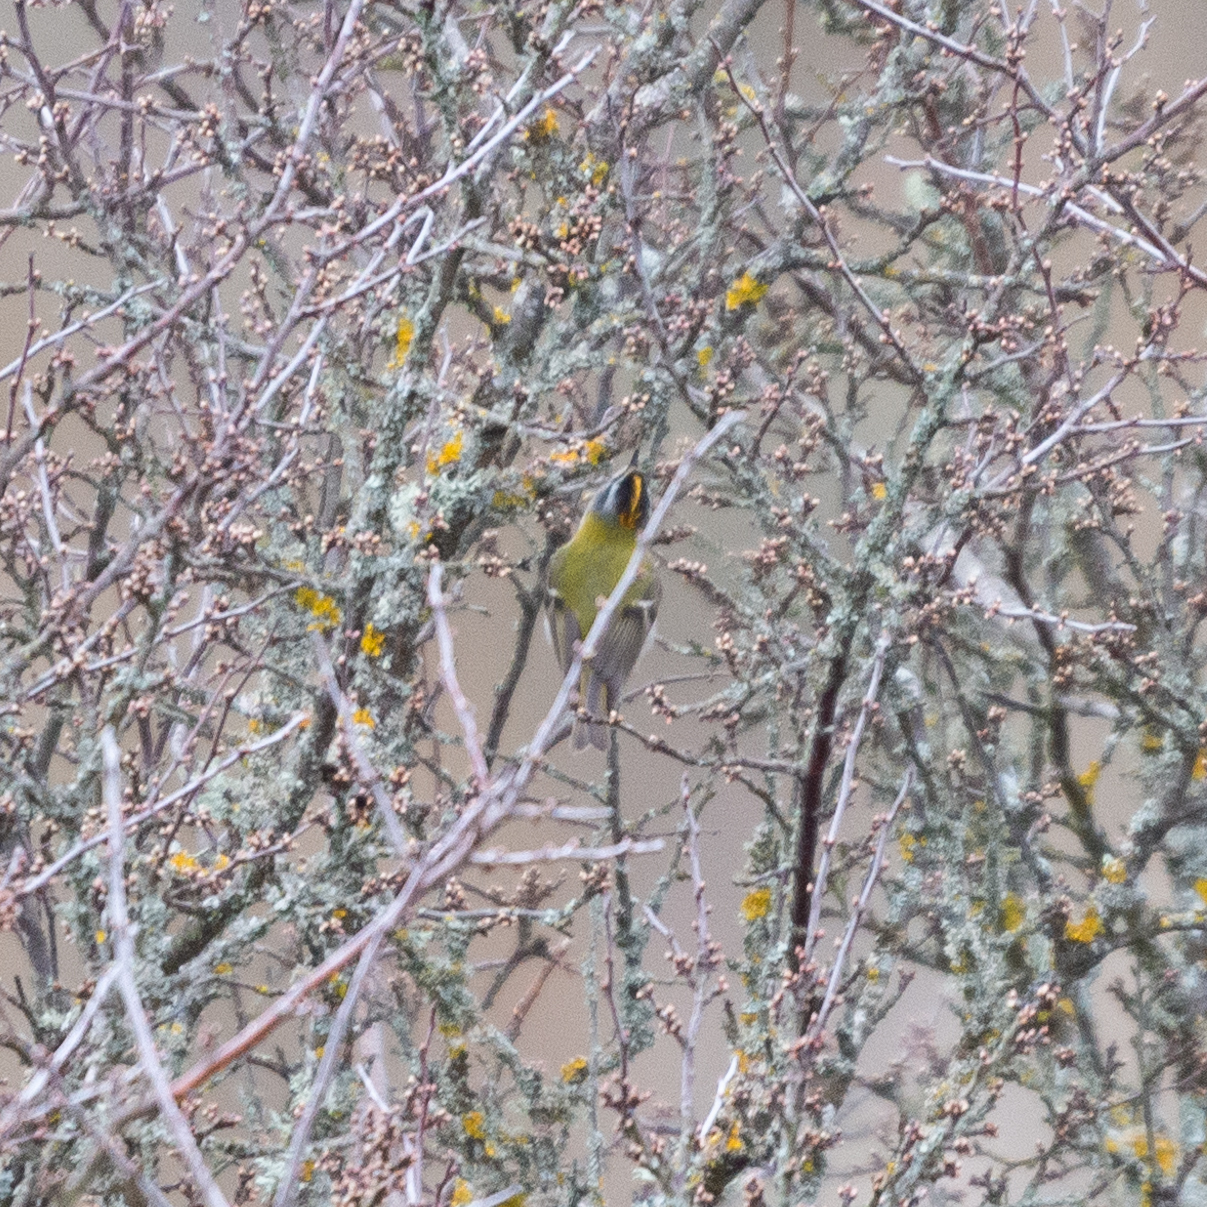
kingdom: Animalia
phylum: Chordata
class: Aves
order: Passeriformes
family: Regulidae
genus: Regulus
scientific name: Regulus ignicapilla
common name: Firecrest
